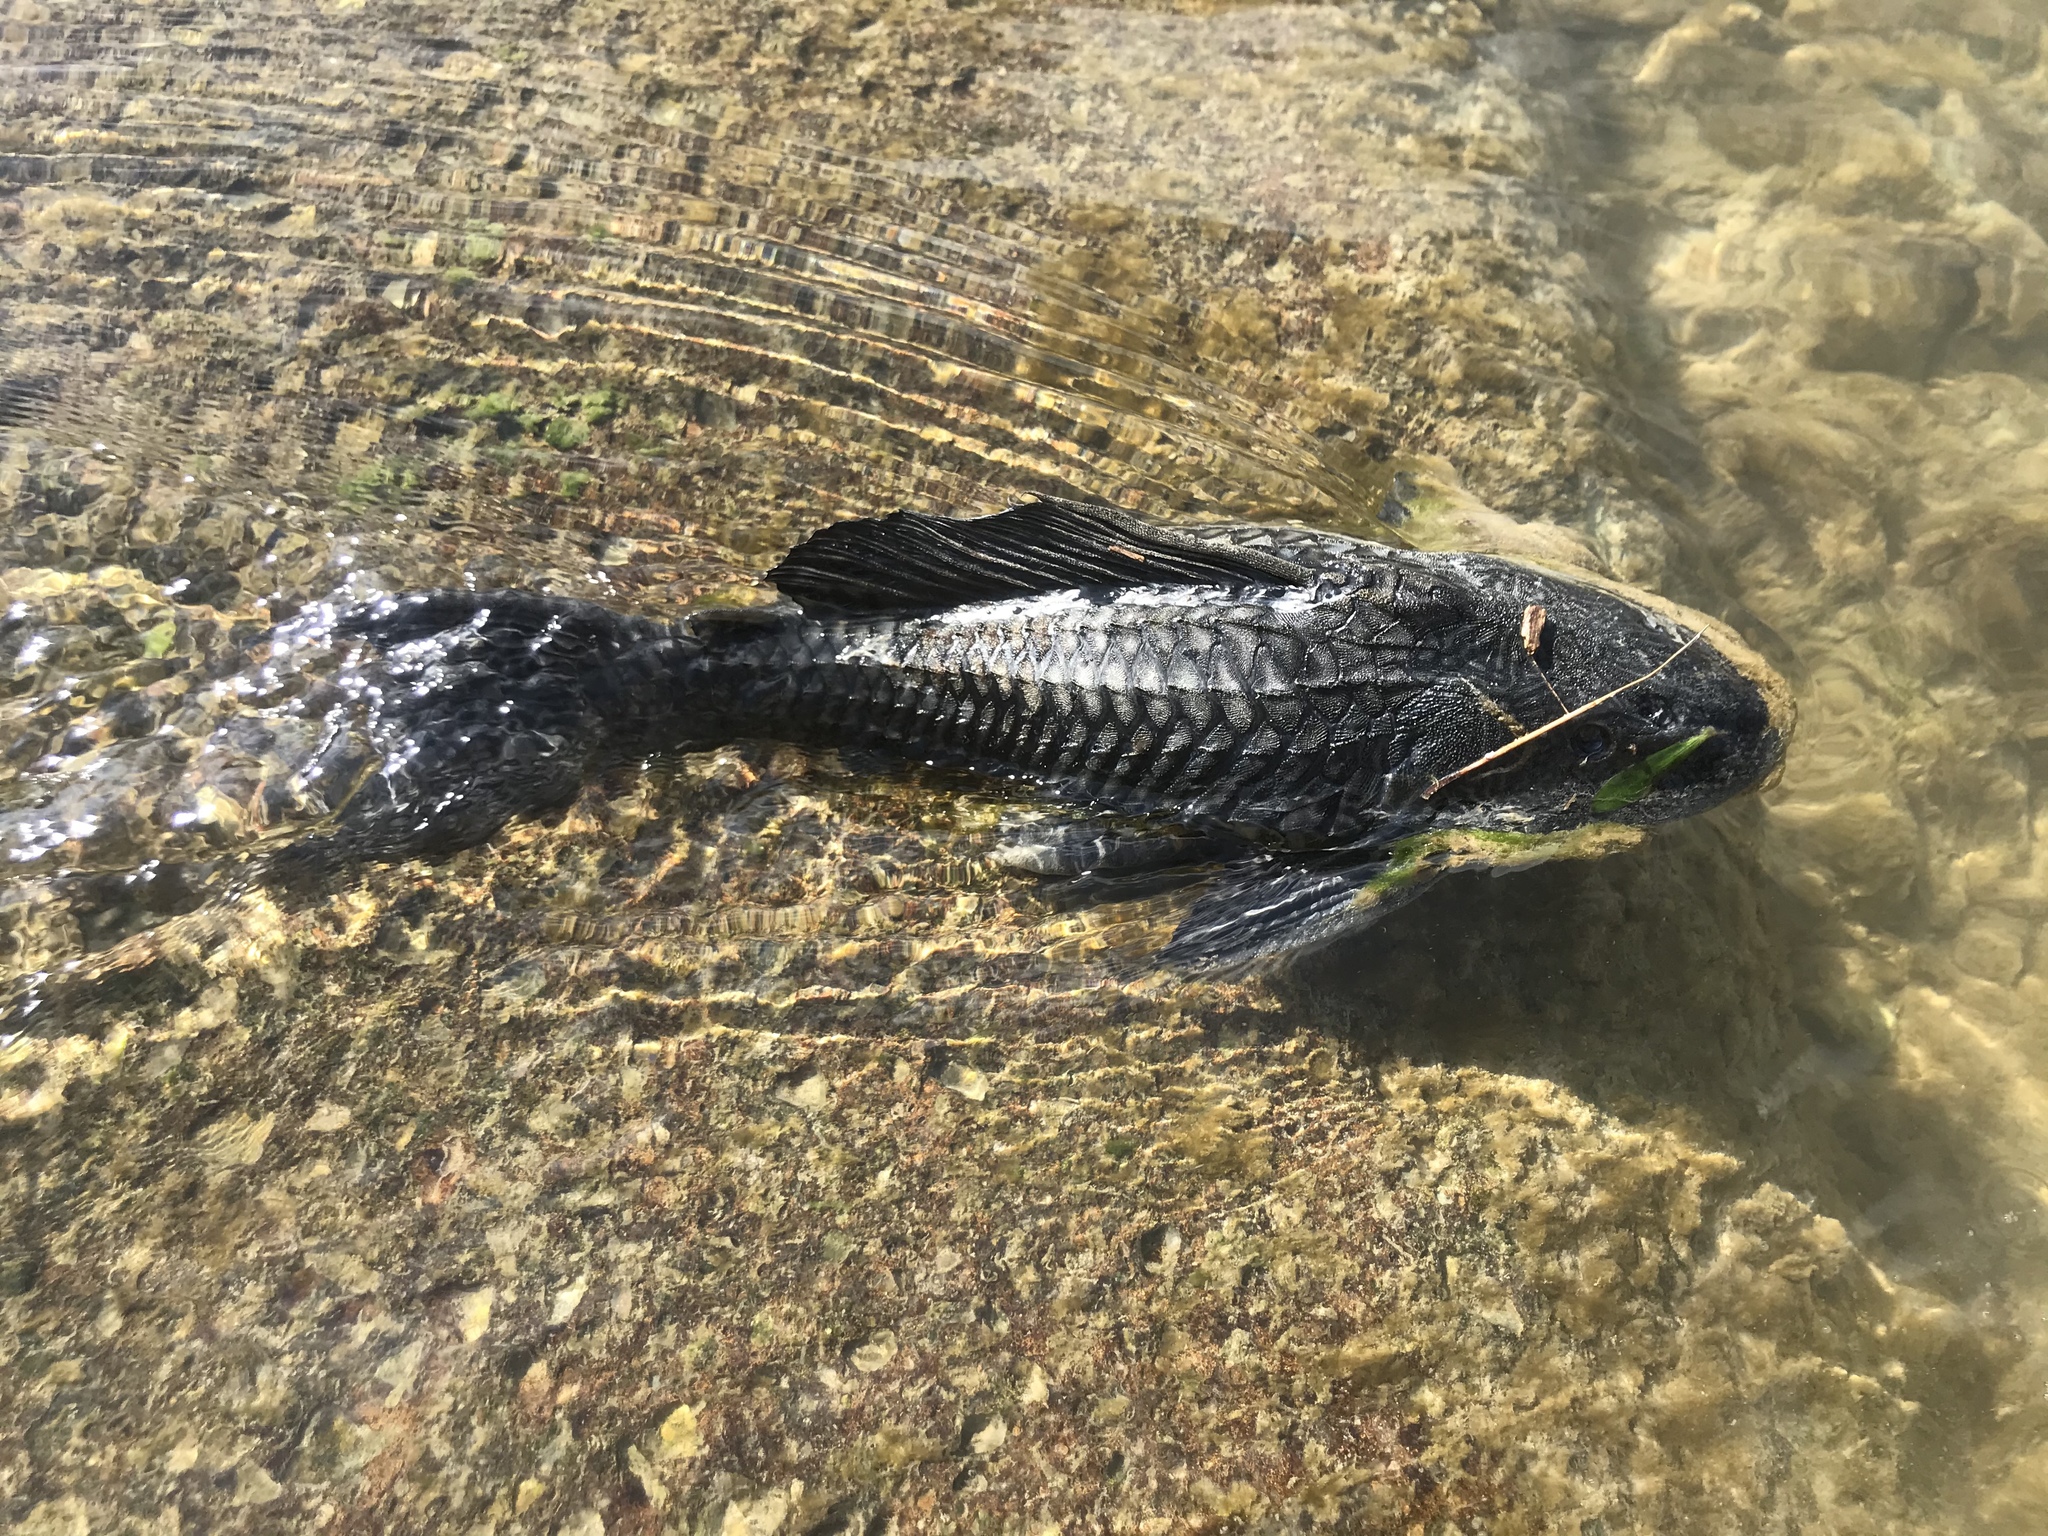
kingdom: Animalia
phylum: Chordata
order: Siluriformes
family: Loricariidae
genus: Pterygoplichthys
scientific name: Pterygoplichthys
